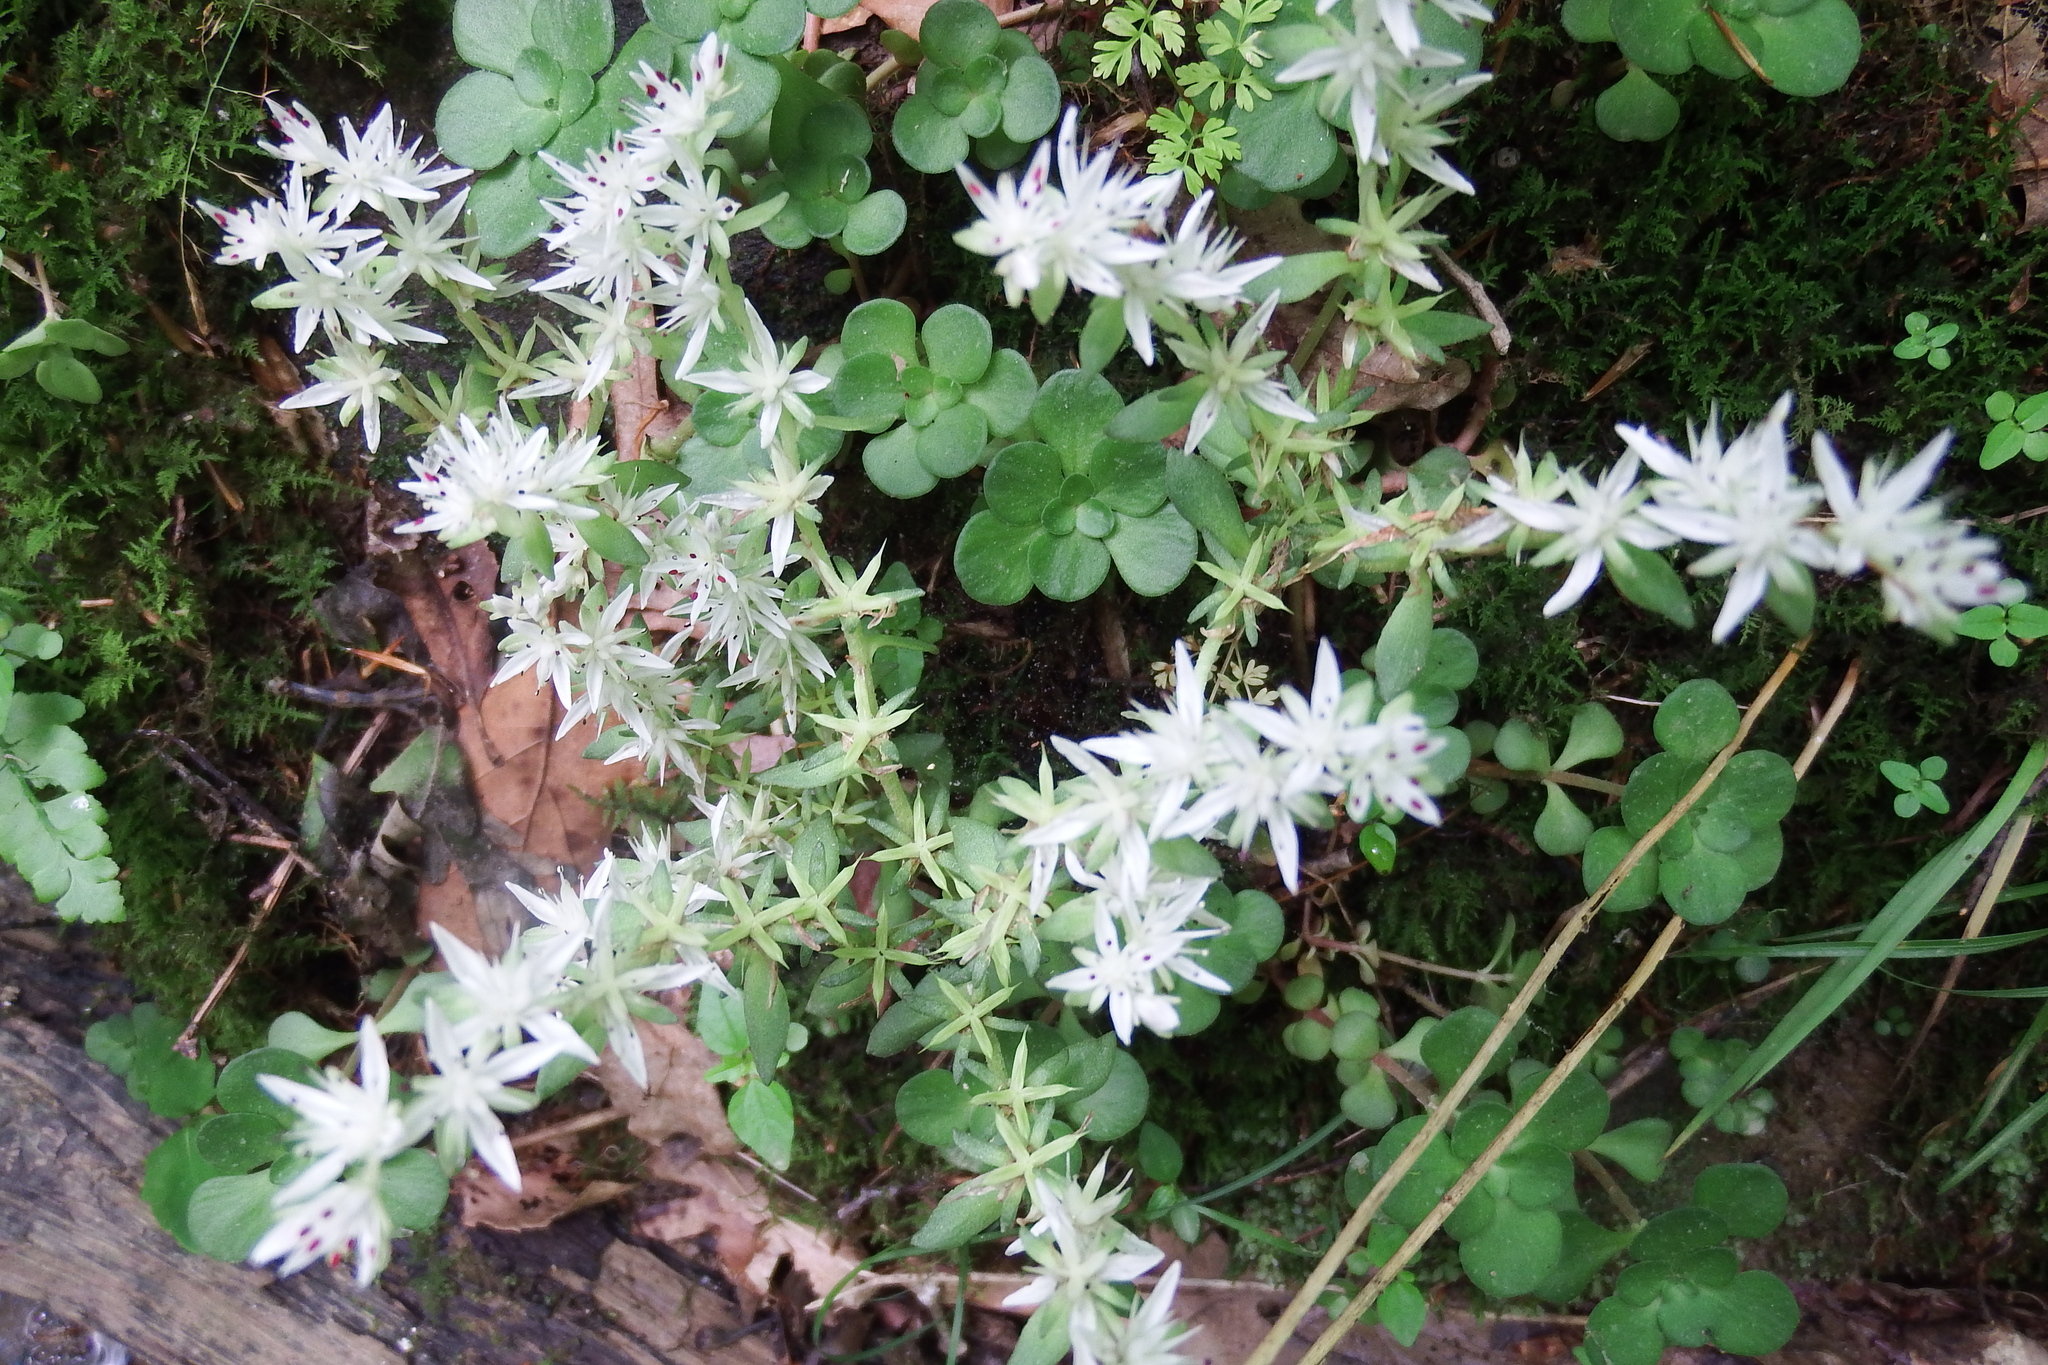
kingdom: Plantae
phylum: Tracheophyta
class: Magnoliopsida
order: Saxifragales
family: Crassulaceae
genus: Sedum
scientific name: Sedum ternatum
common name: Wild stonecrop
